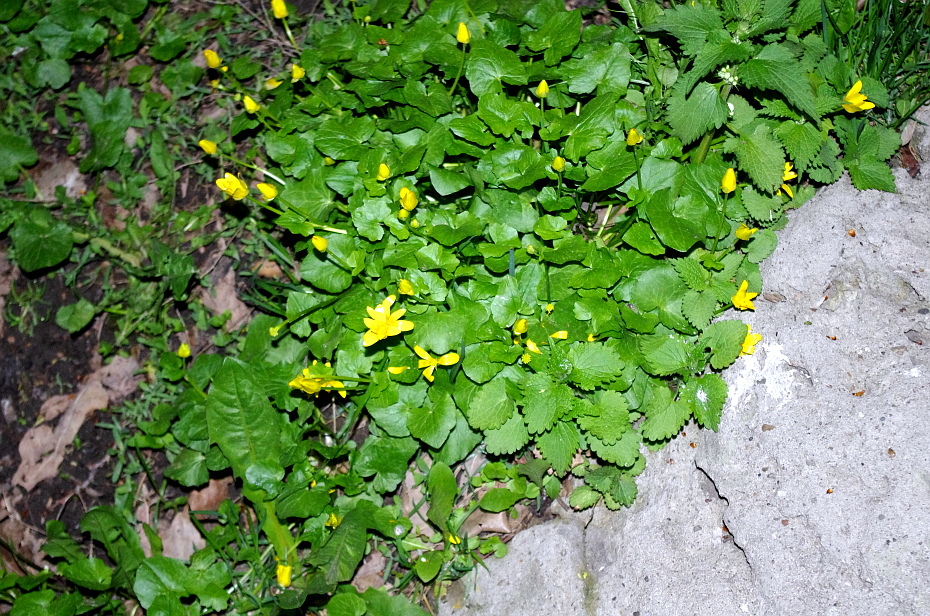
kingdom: Plantae
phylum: Tracheophyta
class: Magnoliopsida
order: Ranunculales
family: Ranunculaceae
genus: Ficaria
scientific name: Ficaria verna
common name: Lesser celandine
